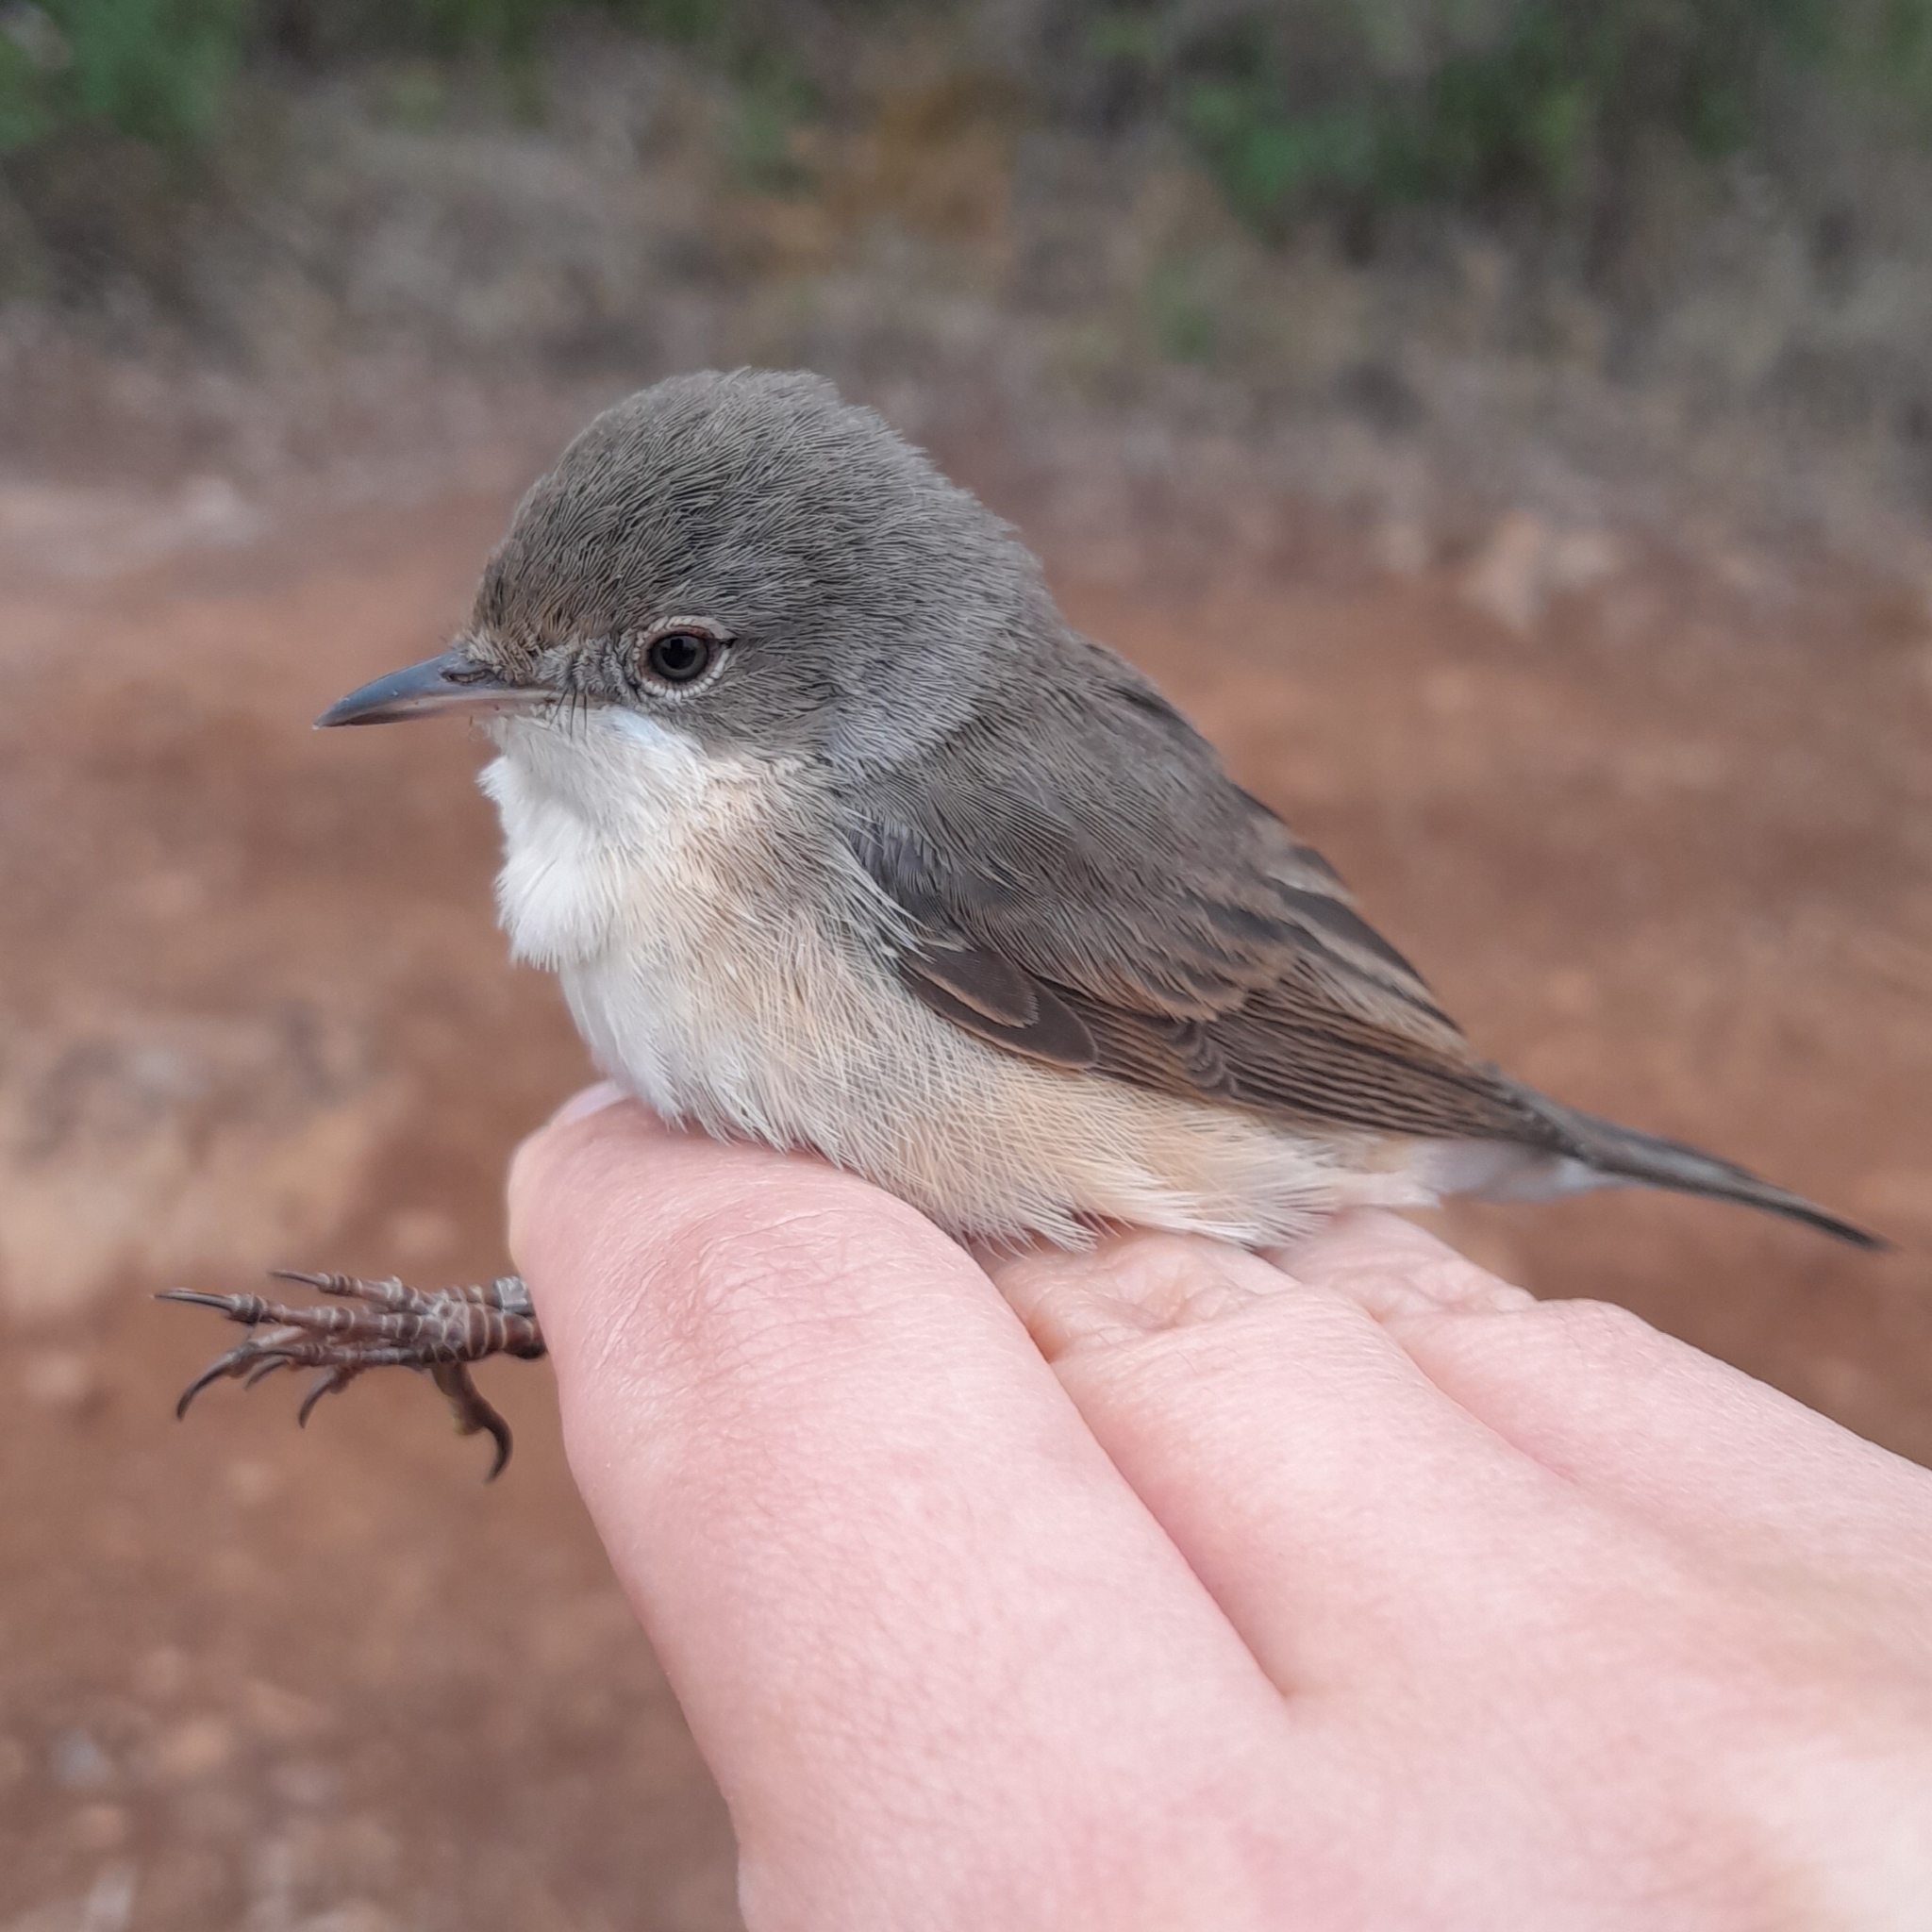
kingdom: Animalia
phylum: Chordata
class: Aves
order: Passeriformes
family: Sylviidae
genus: Curruca
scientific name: Curruca iberiae
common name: Western subalpine warbler
